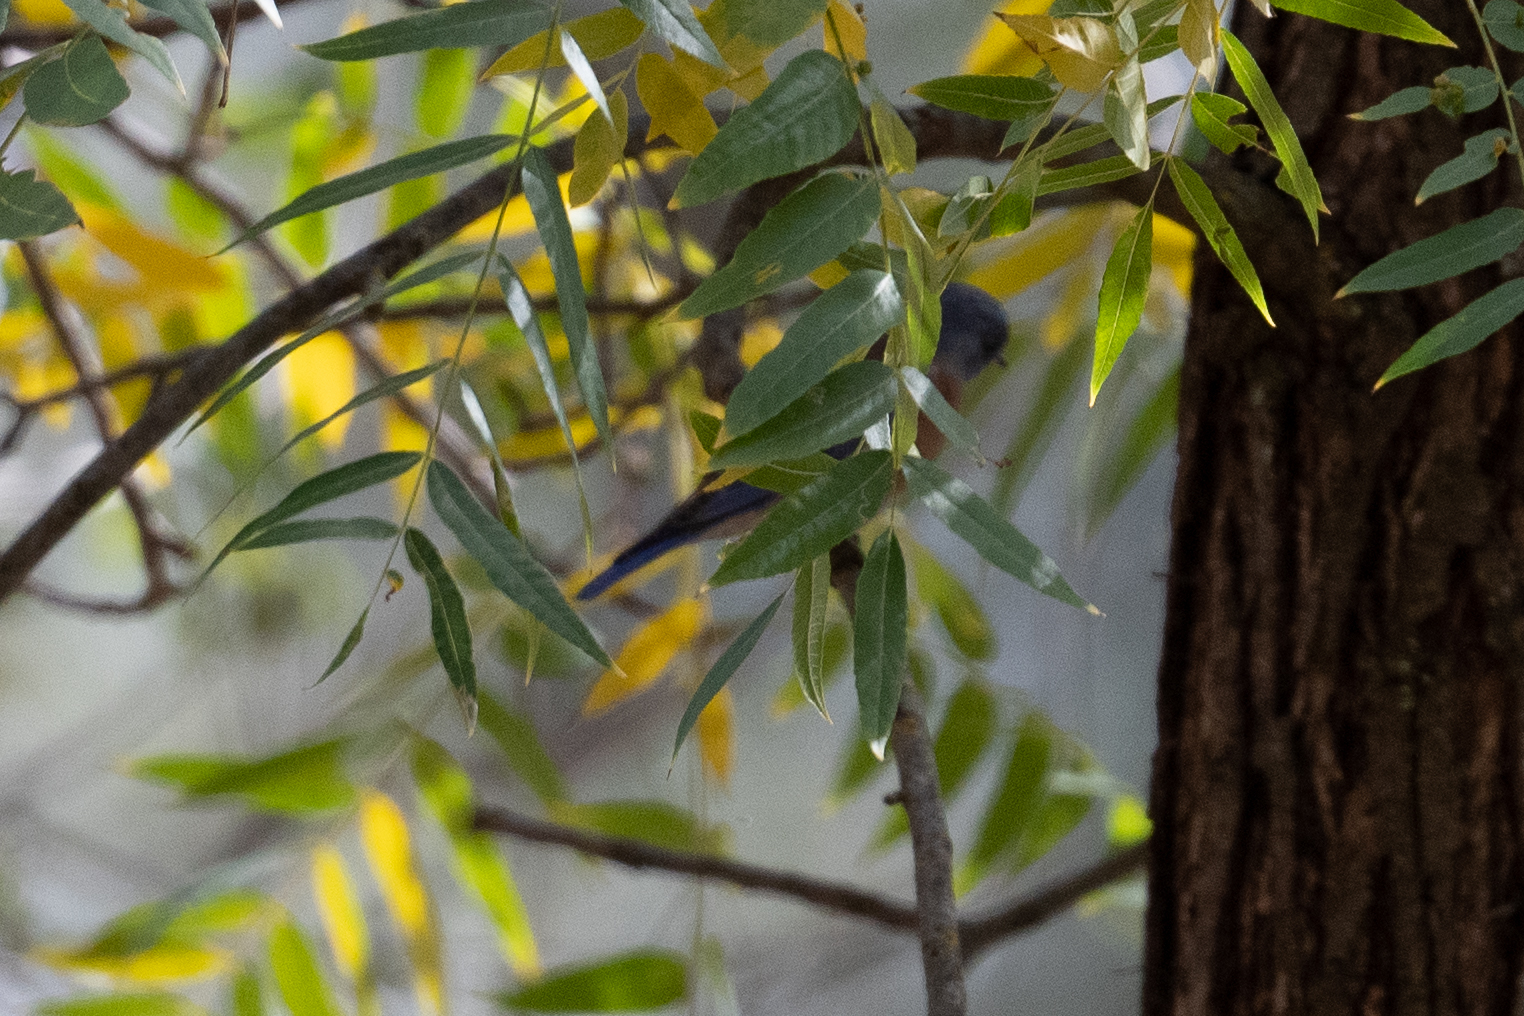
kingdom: Animalia
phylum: Chordata
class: Aves
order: Passeriformes
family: Turdidae
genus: Sialia
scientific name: Sialia mexicana
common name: Western bluebird
